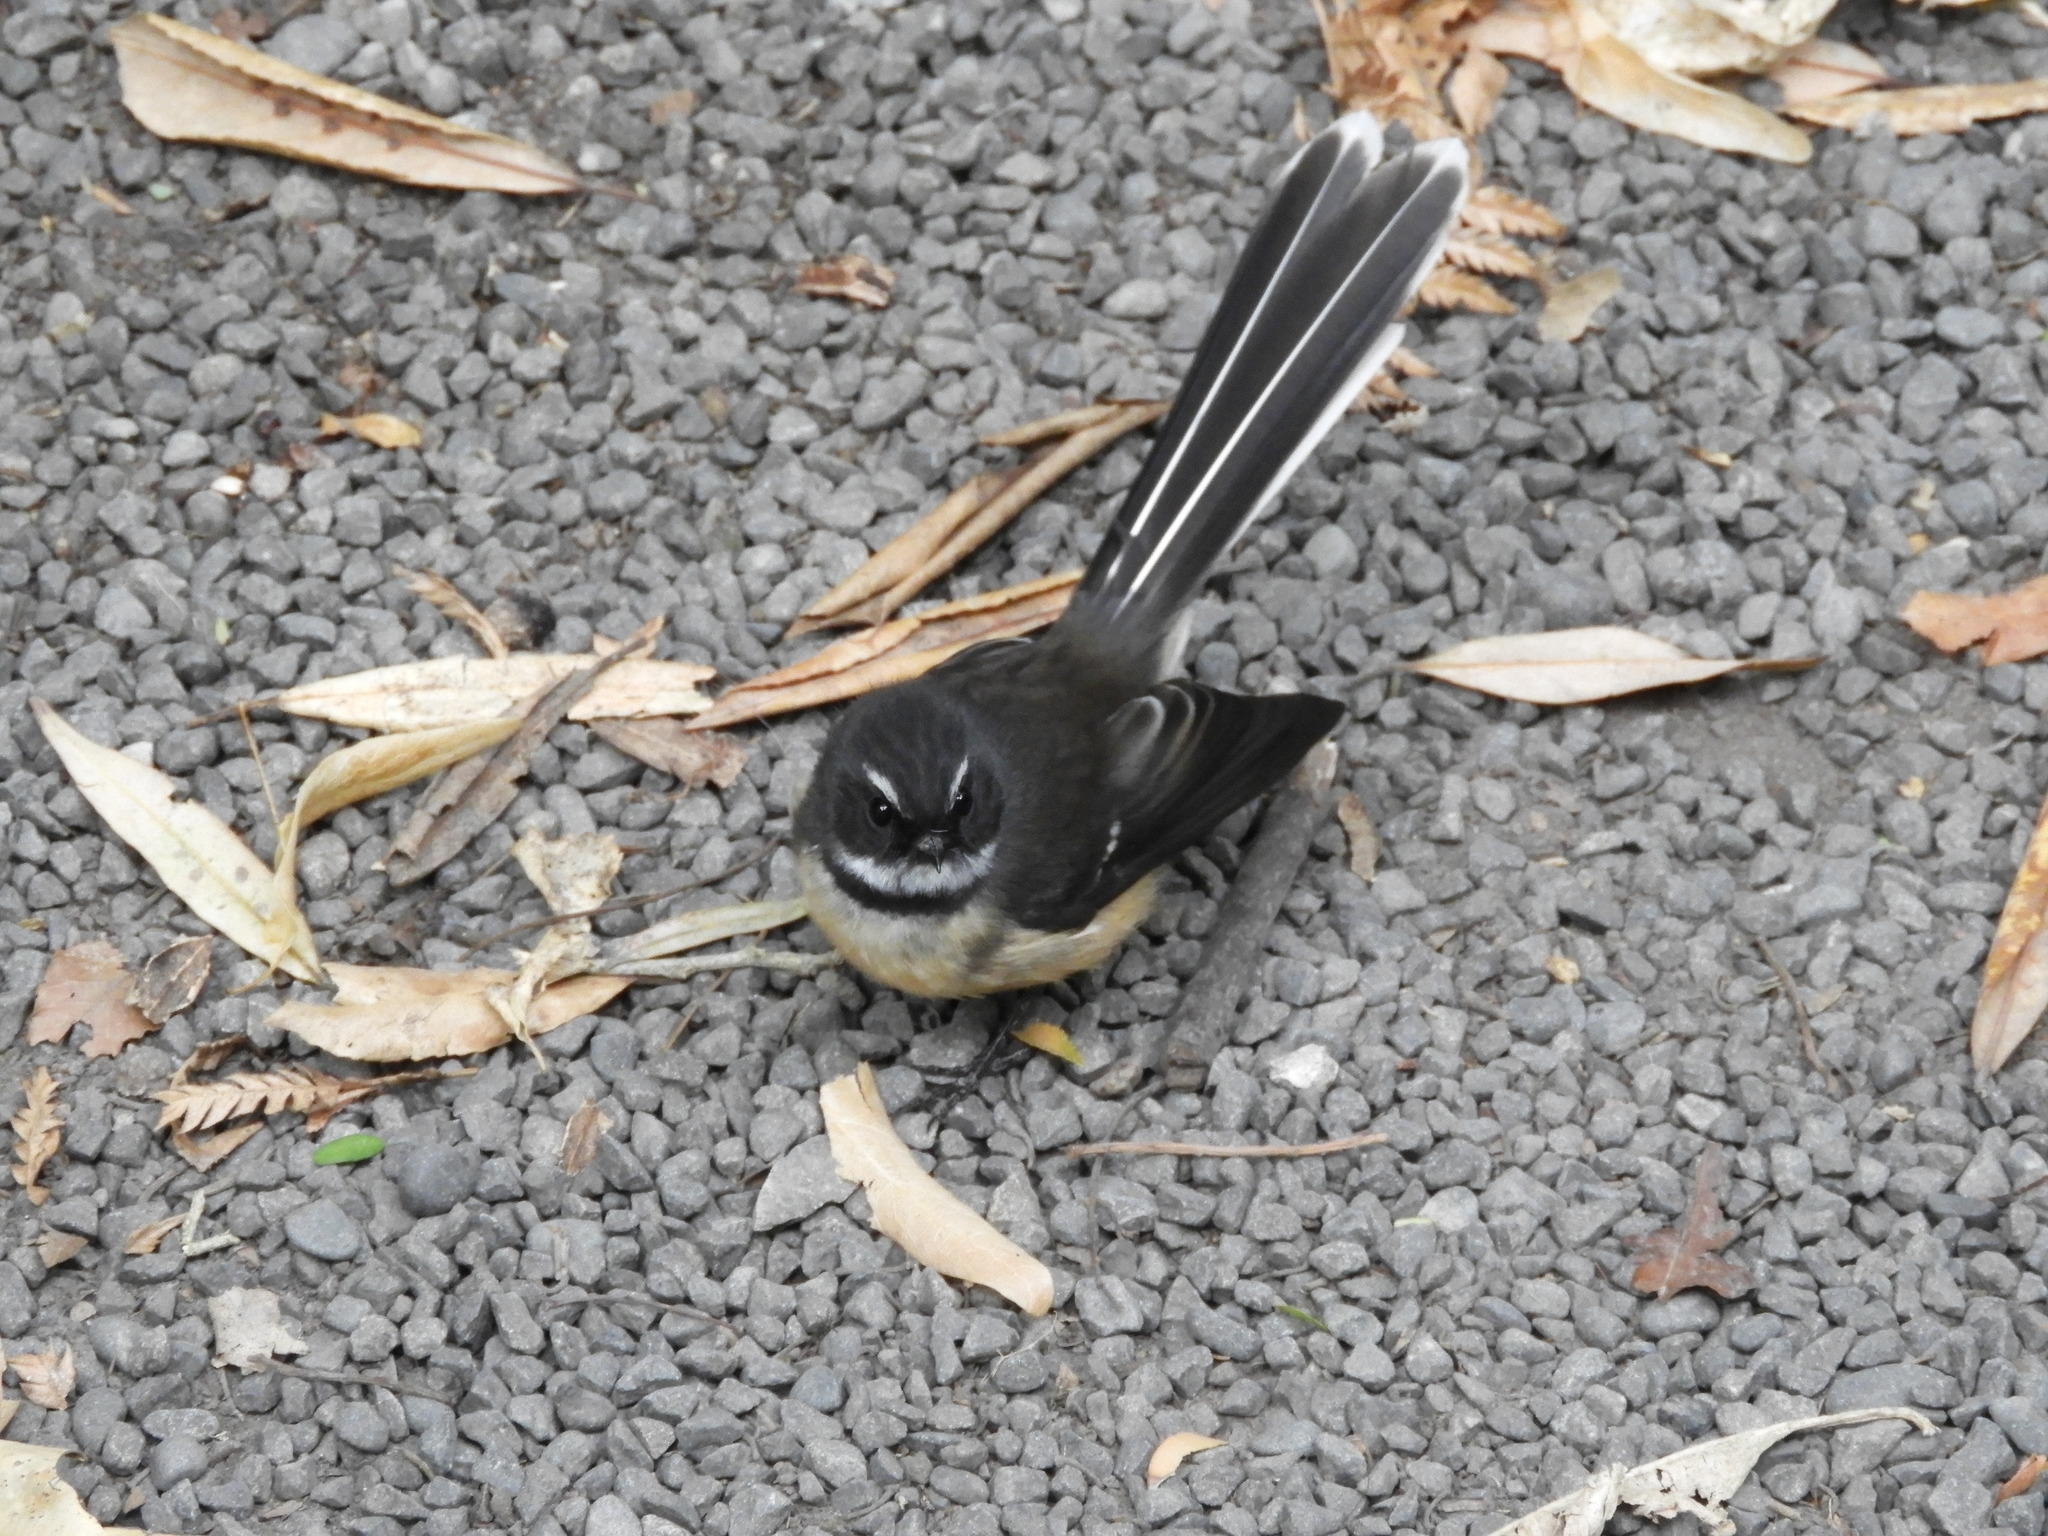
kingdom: Animalia
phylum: Chordata
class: Aves
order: Passeriformes
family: Rhipiduridae
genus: Rhipidura
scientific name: Rhipidura fuliginosa
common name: New zealand fantail
